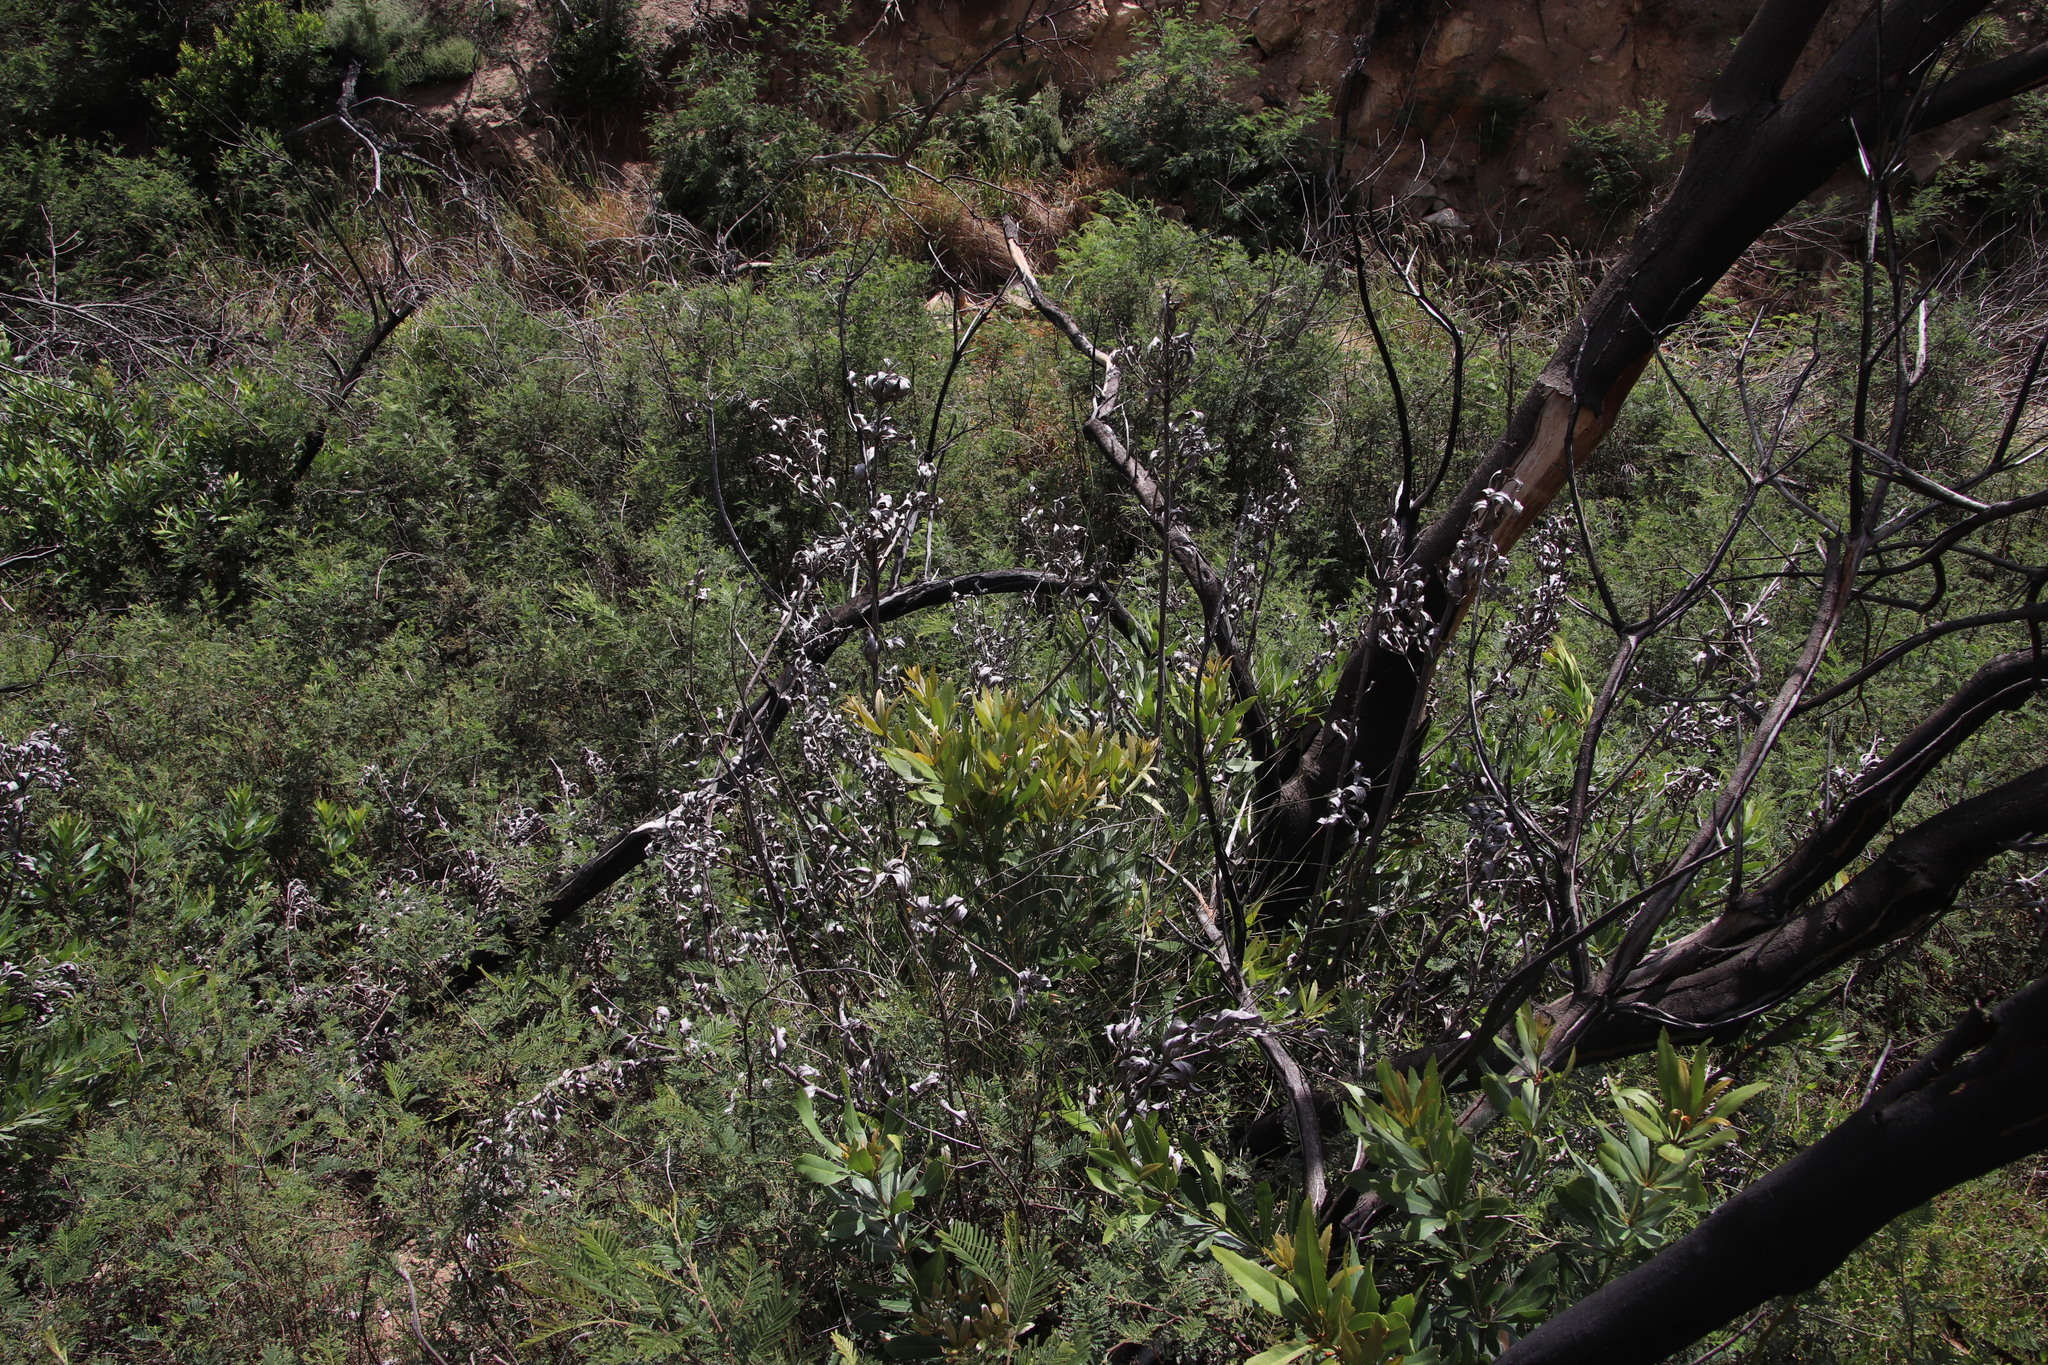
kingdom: Plantae
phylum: Tracheophyta
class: Magnoliopsida
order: Proteales
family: Proteaceae
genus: Brabejum
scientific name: Brabejum stellatifolium
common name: Wild almond
